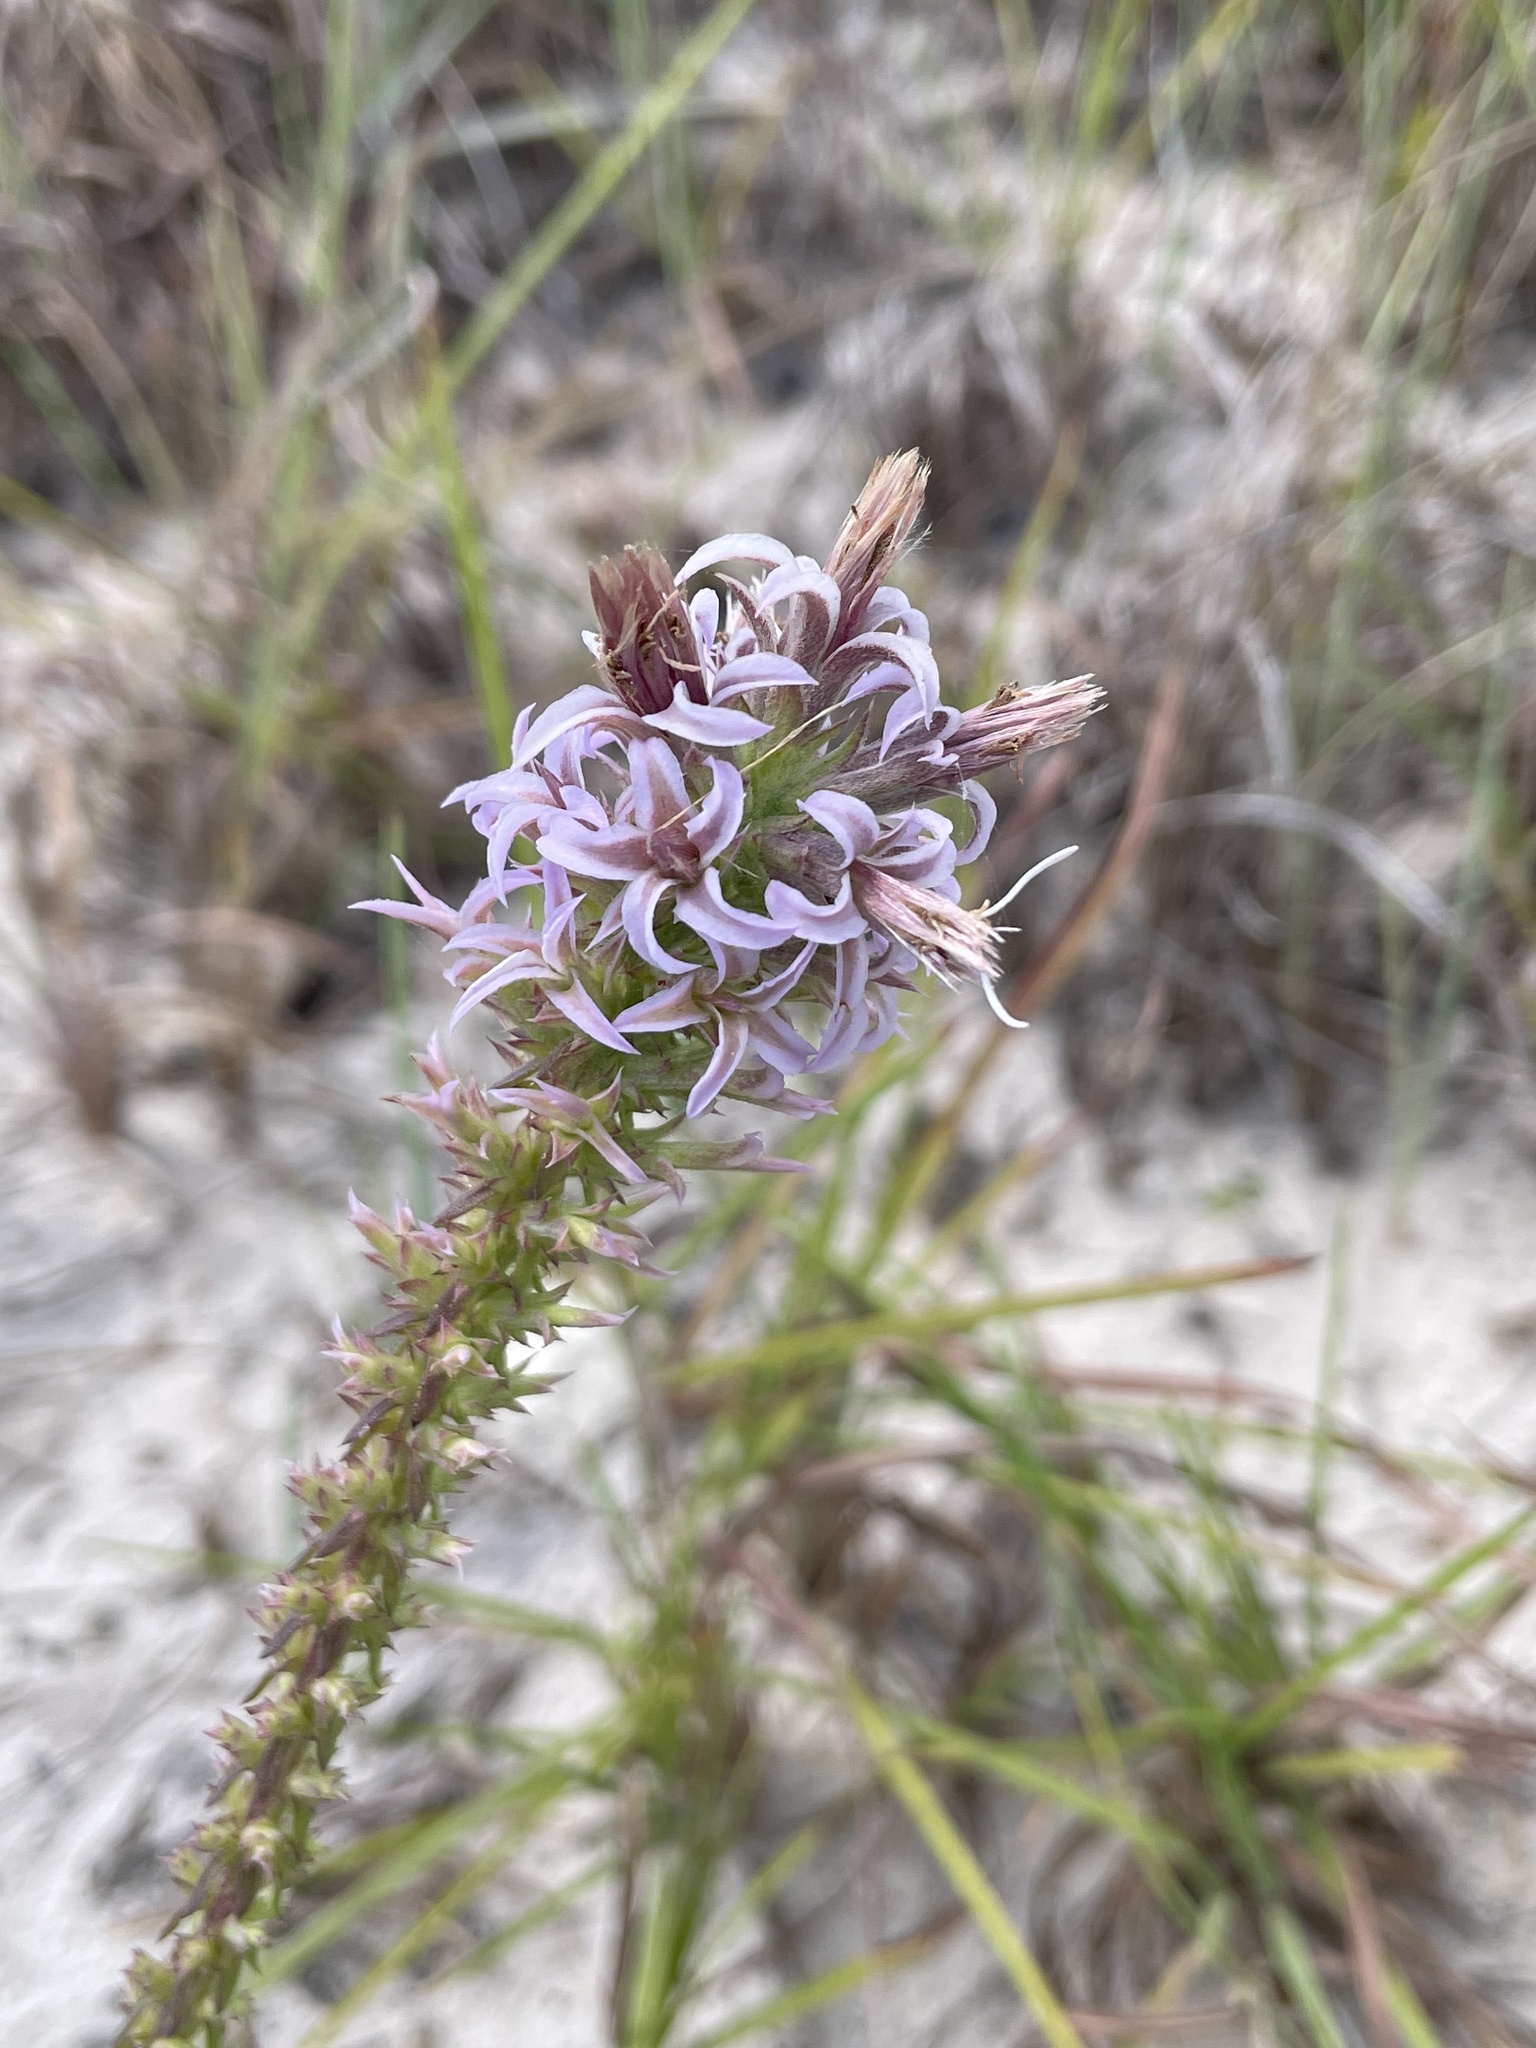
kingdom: Plantae
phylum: Tracheophyta
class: Magnoliopsida
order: Asterales
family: Asteraceae
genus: Liatris
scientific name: Liatris carizzana
